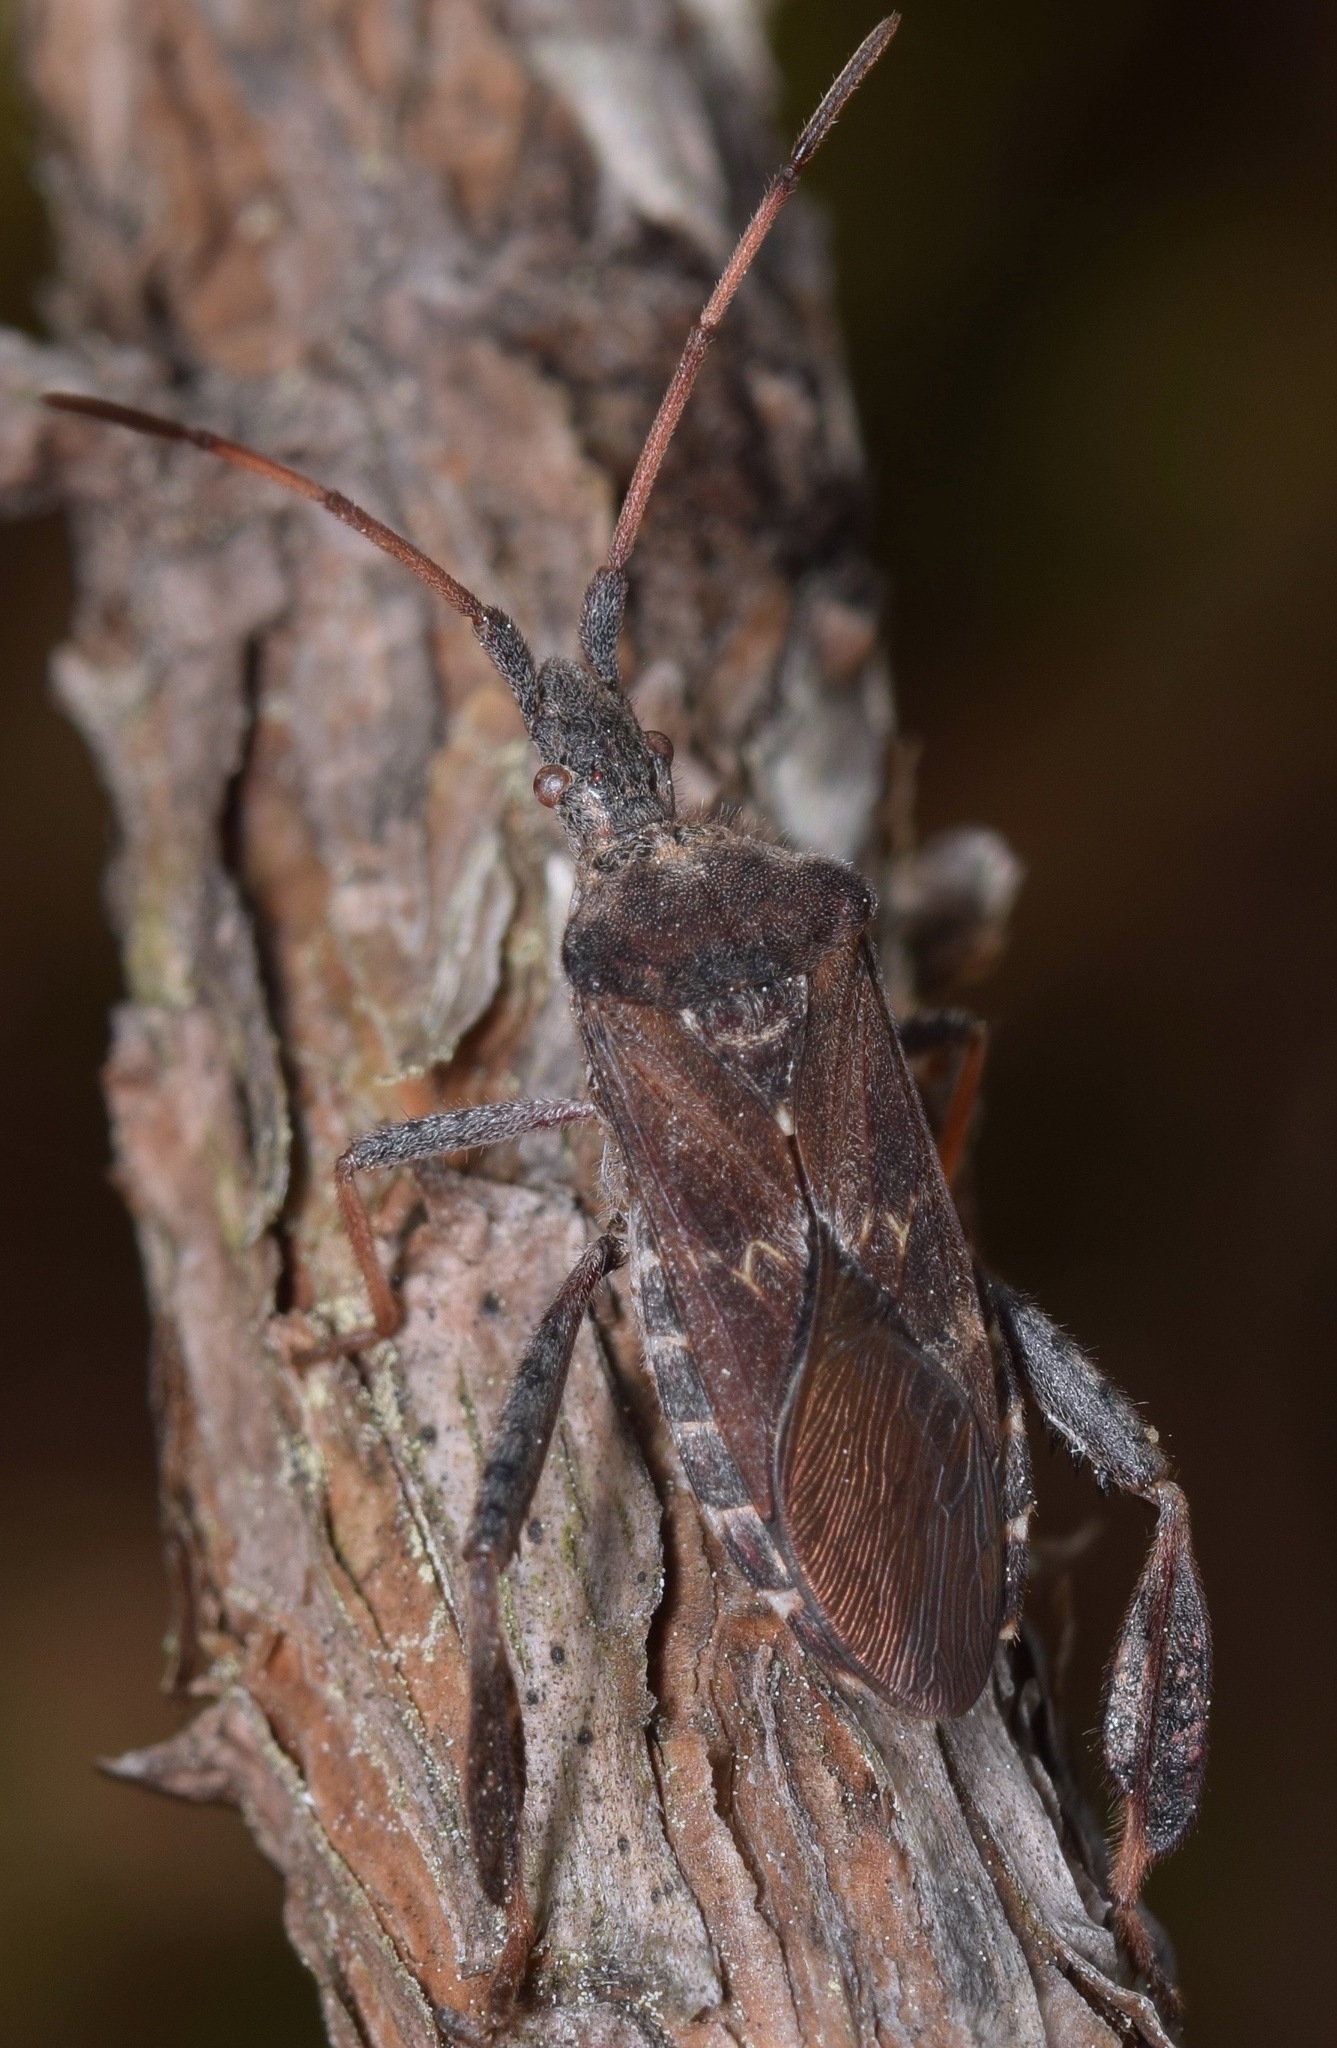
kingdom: Animalia
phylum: Arthropoda
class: Insecta
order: Hemiptera
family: Coreidae
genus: Leptoglossus
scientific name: Leptoglossus corculus
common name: Southern pine seed bug
